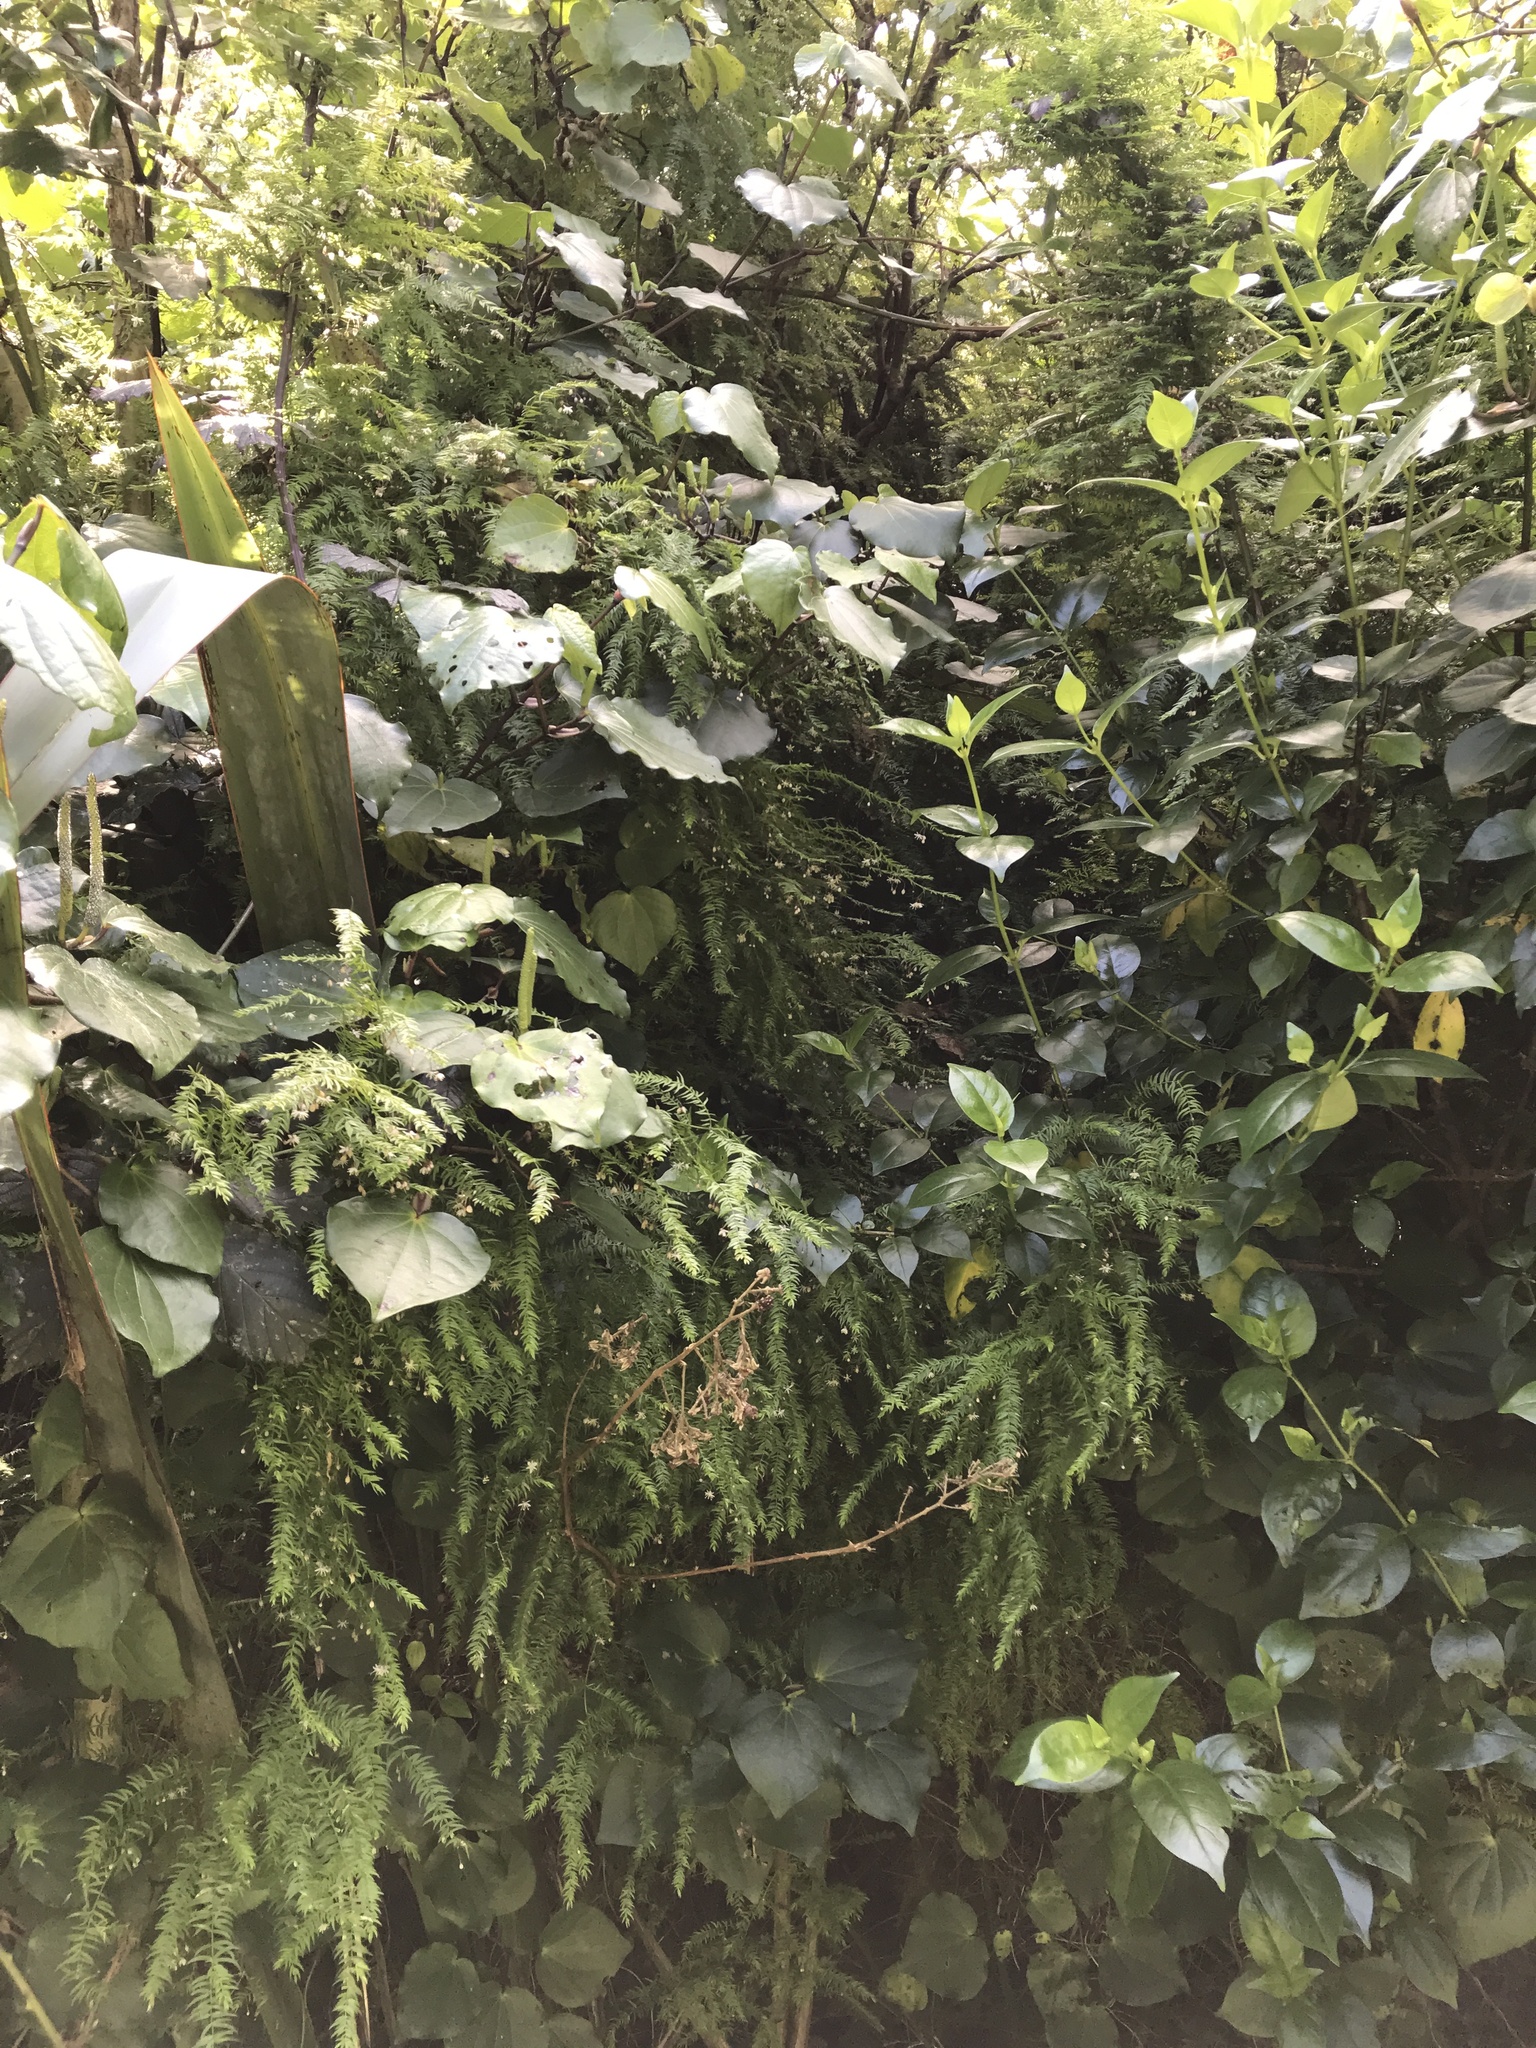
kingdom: Plantae
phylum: Tracheophyta
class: Liliopsida
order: Asparagales
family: Asparagaceae
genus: Asparagus
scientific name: Asparagus scandens
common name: Asparagus-fern
